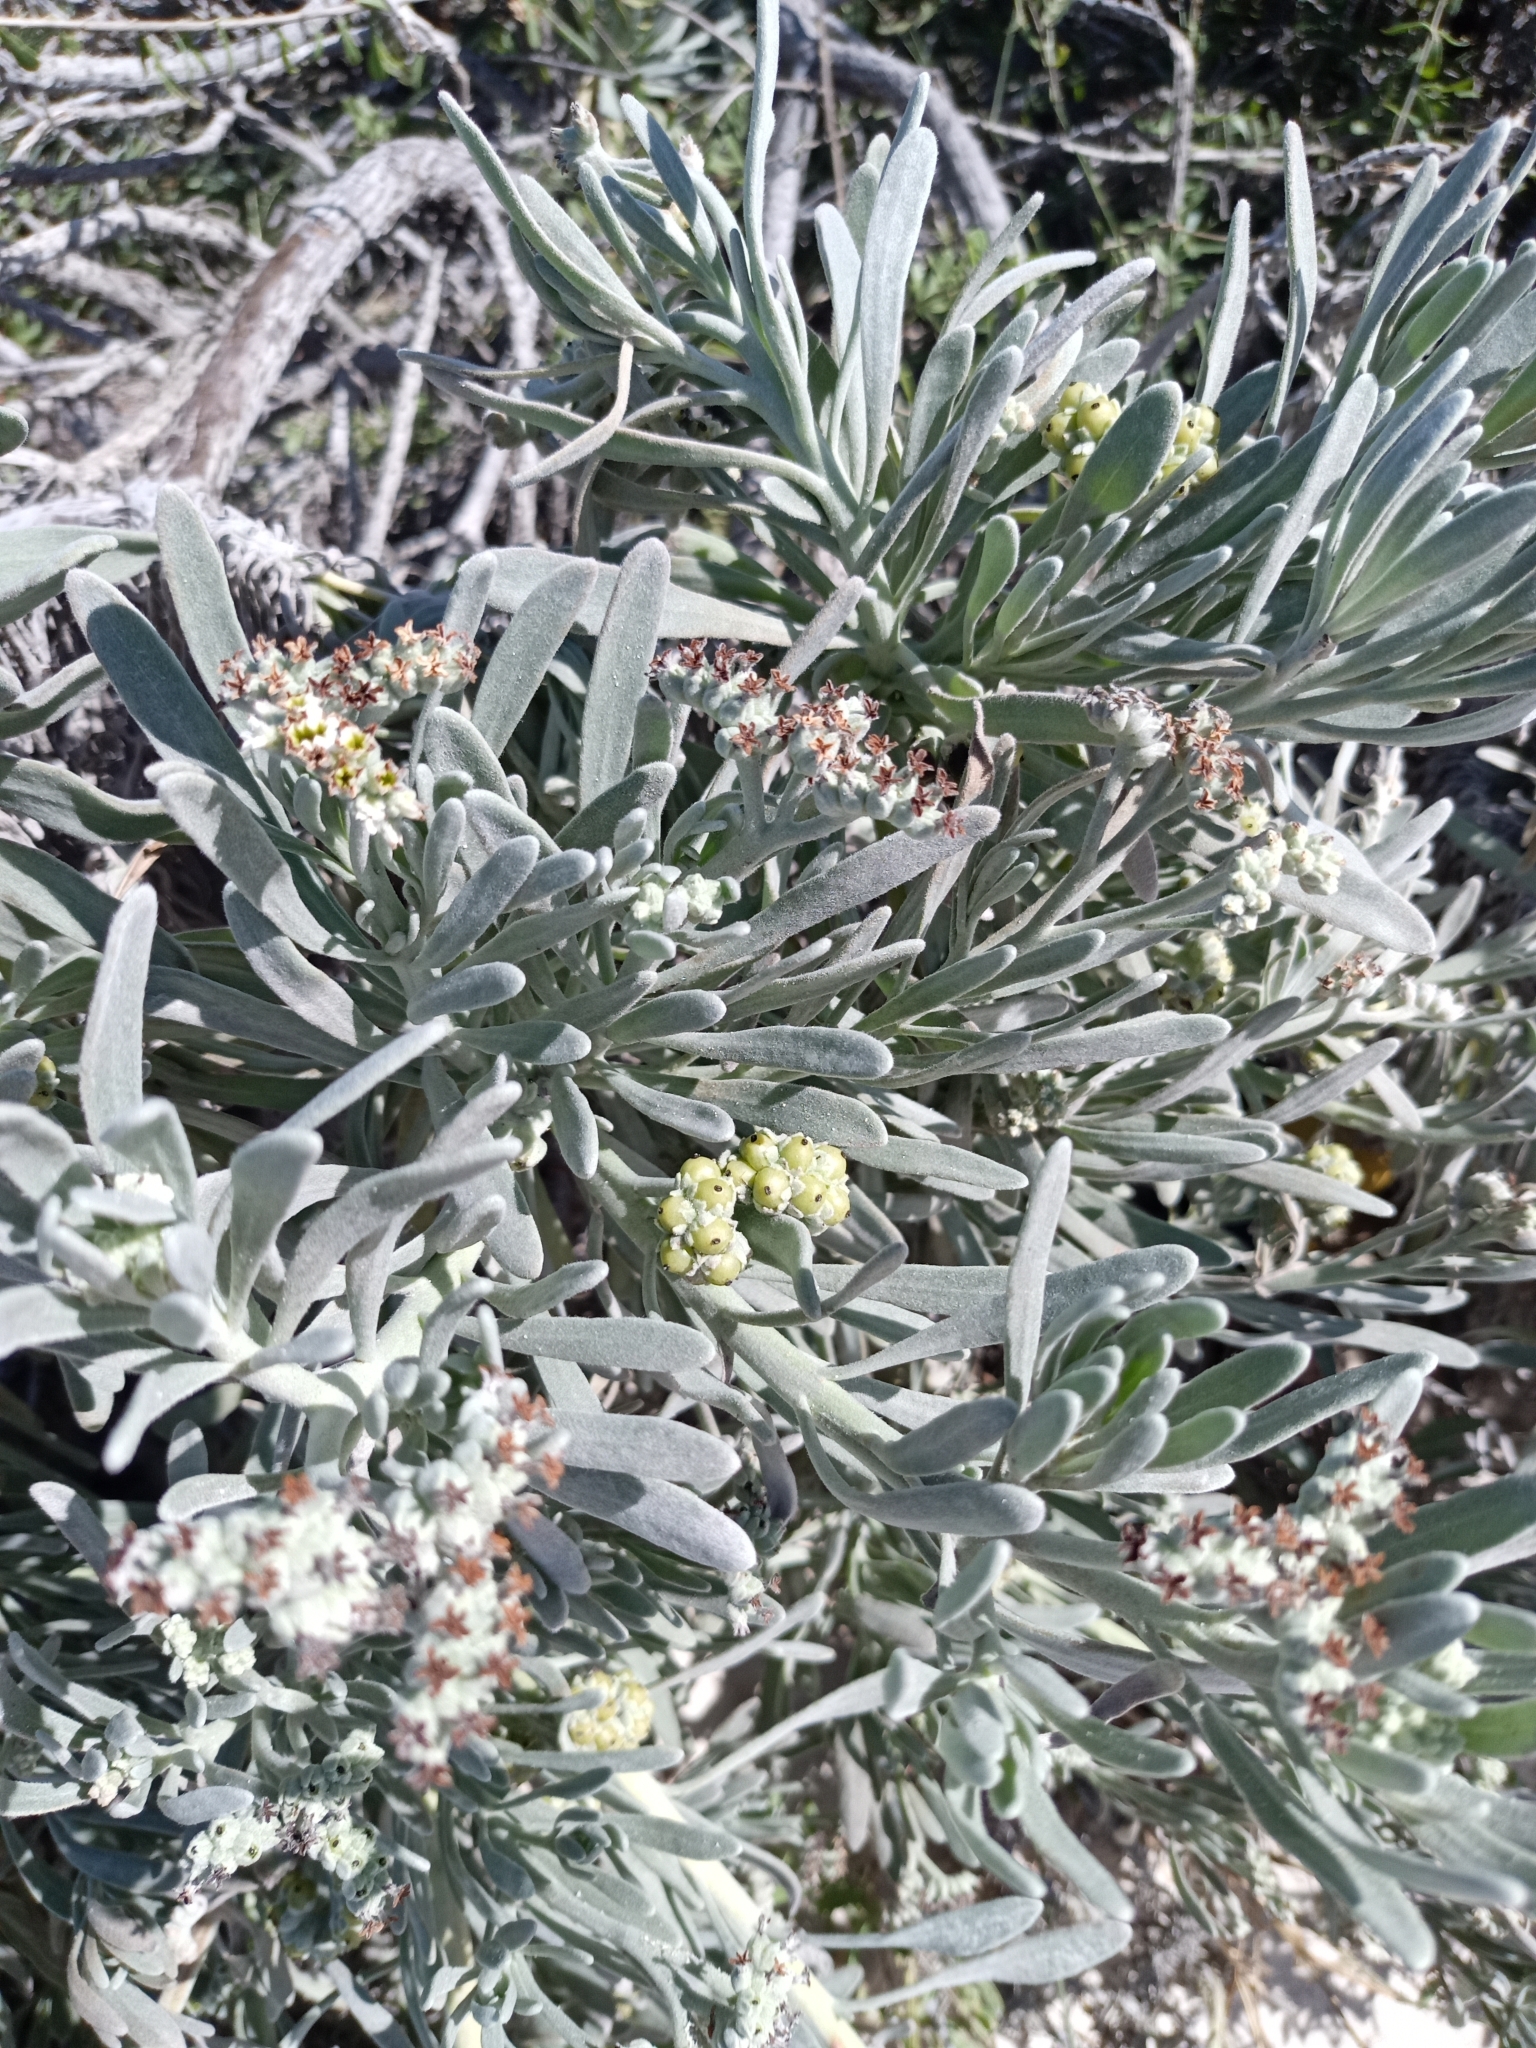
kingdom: Plantae
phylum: Tracheophyta
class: Magnoliopsida
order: Boraginales
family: Heliotropiaceae
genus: Tournefortia
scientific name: Tournefortia gnaphalodes
